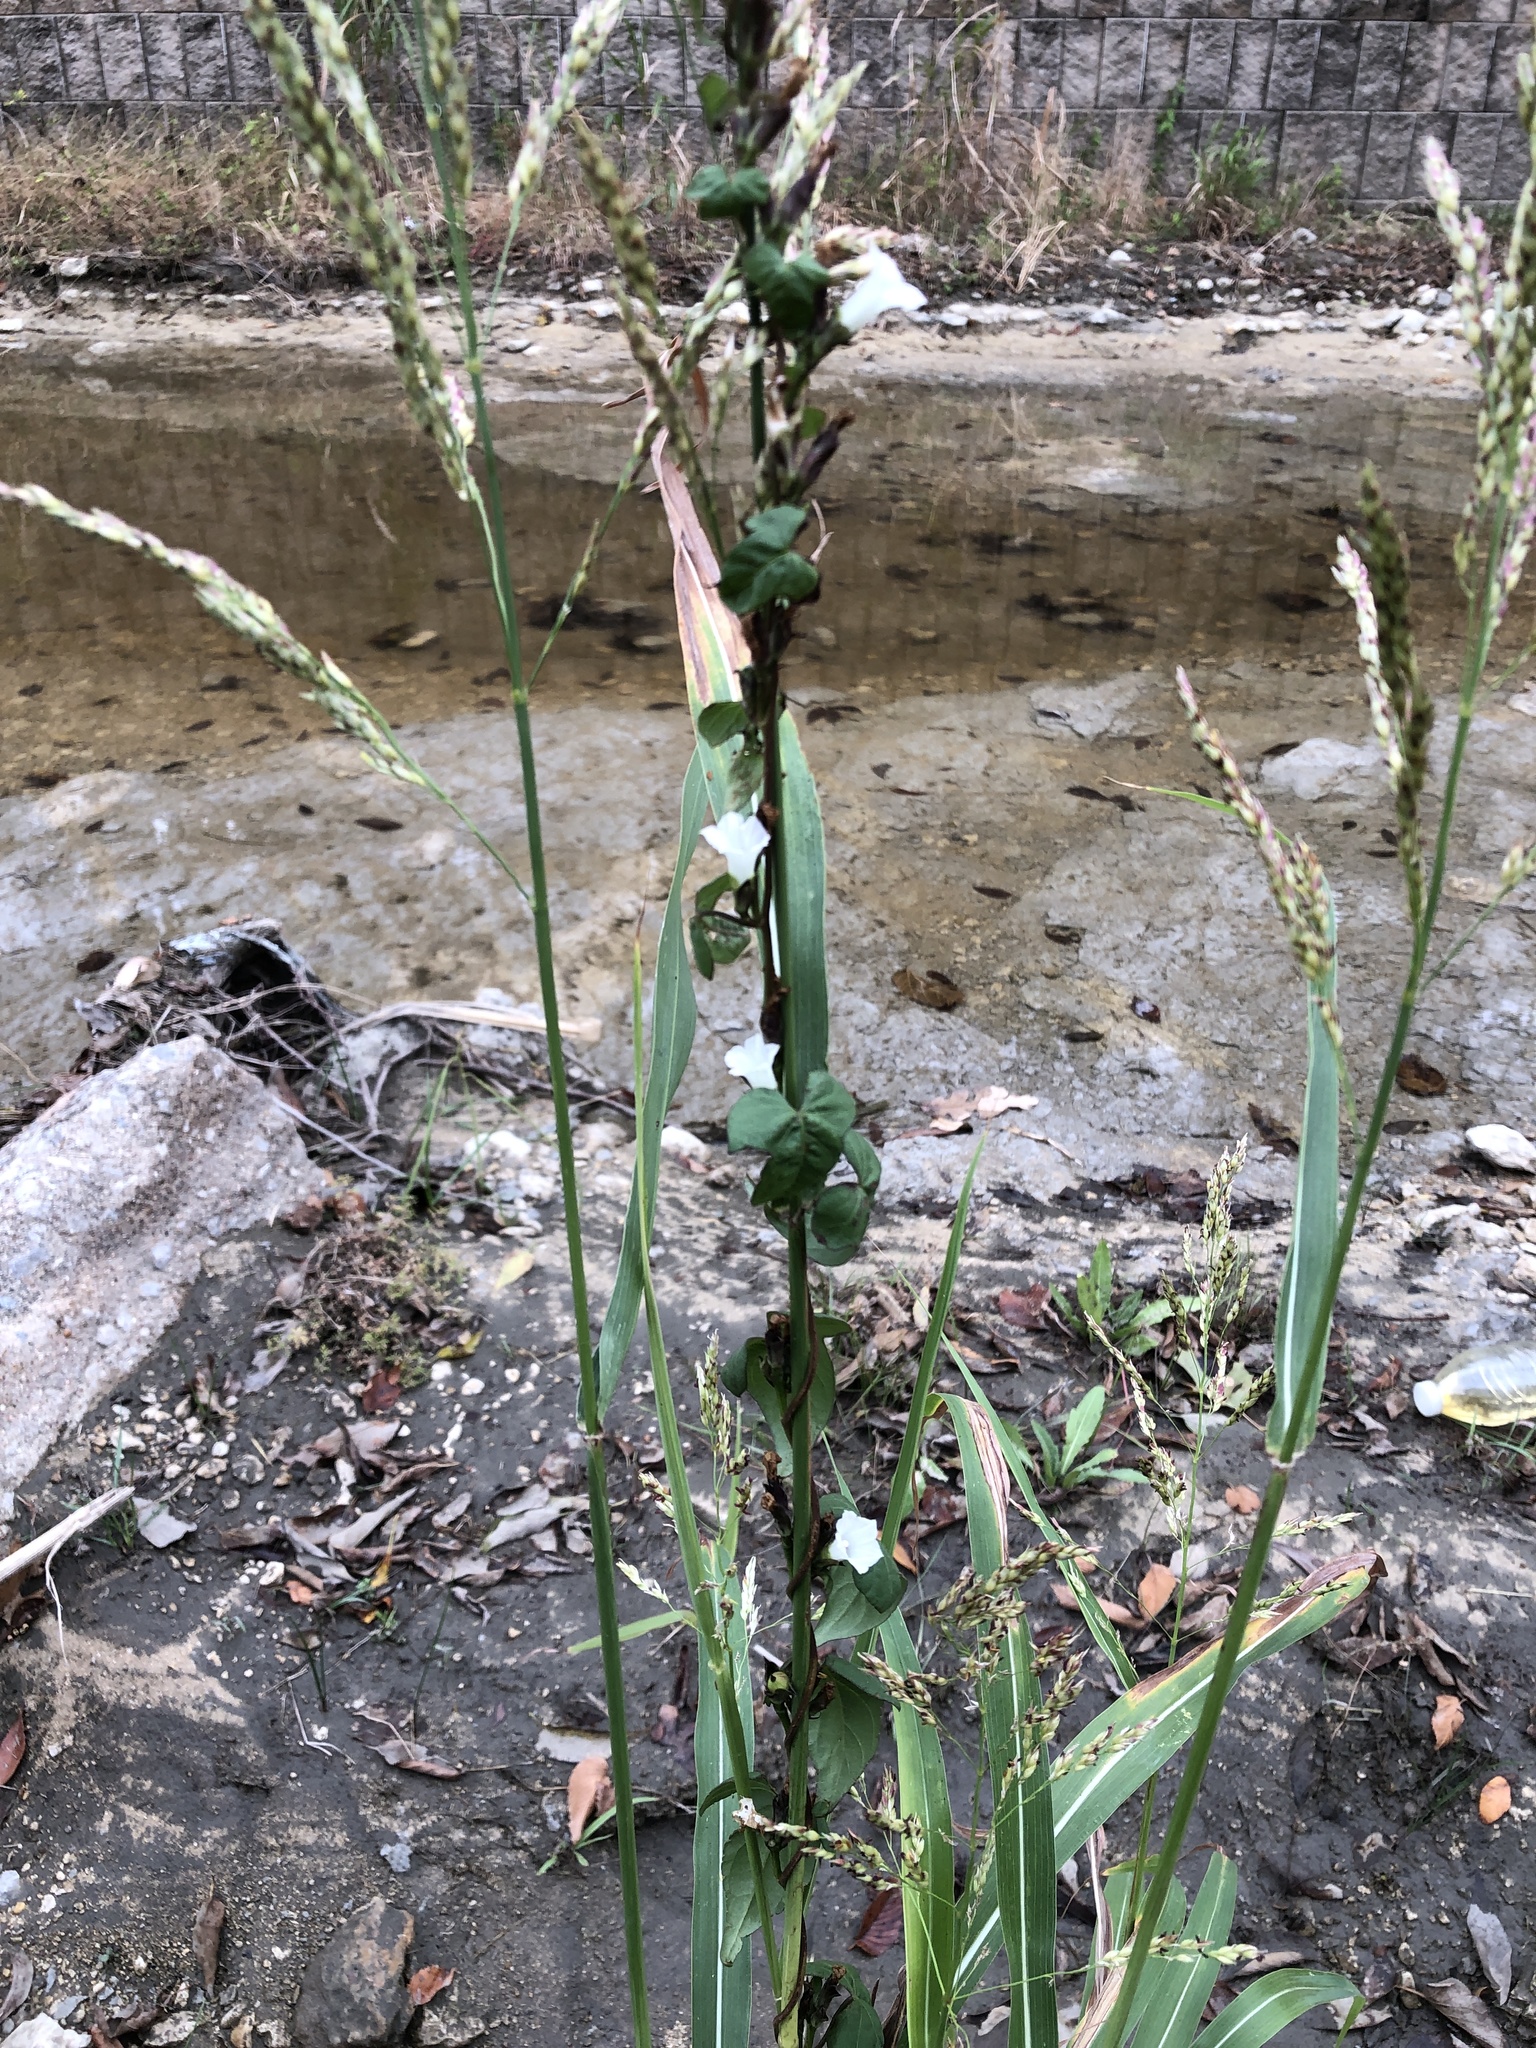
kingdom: Plantae
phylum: Tracheophyta
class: Magnoliopsida
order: Solanales
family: Convolvulaceae
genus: Ipomoea
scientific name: Ipomoea lacunosa
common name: White morning-glory
